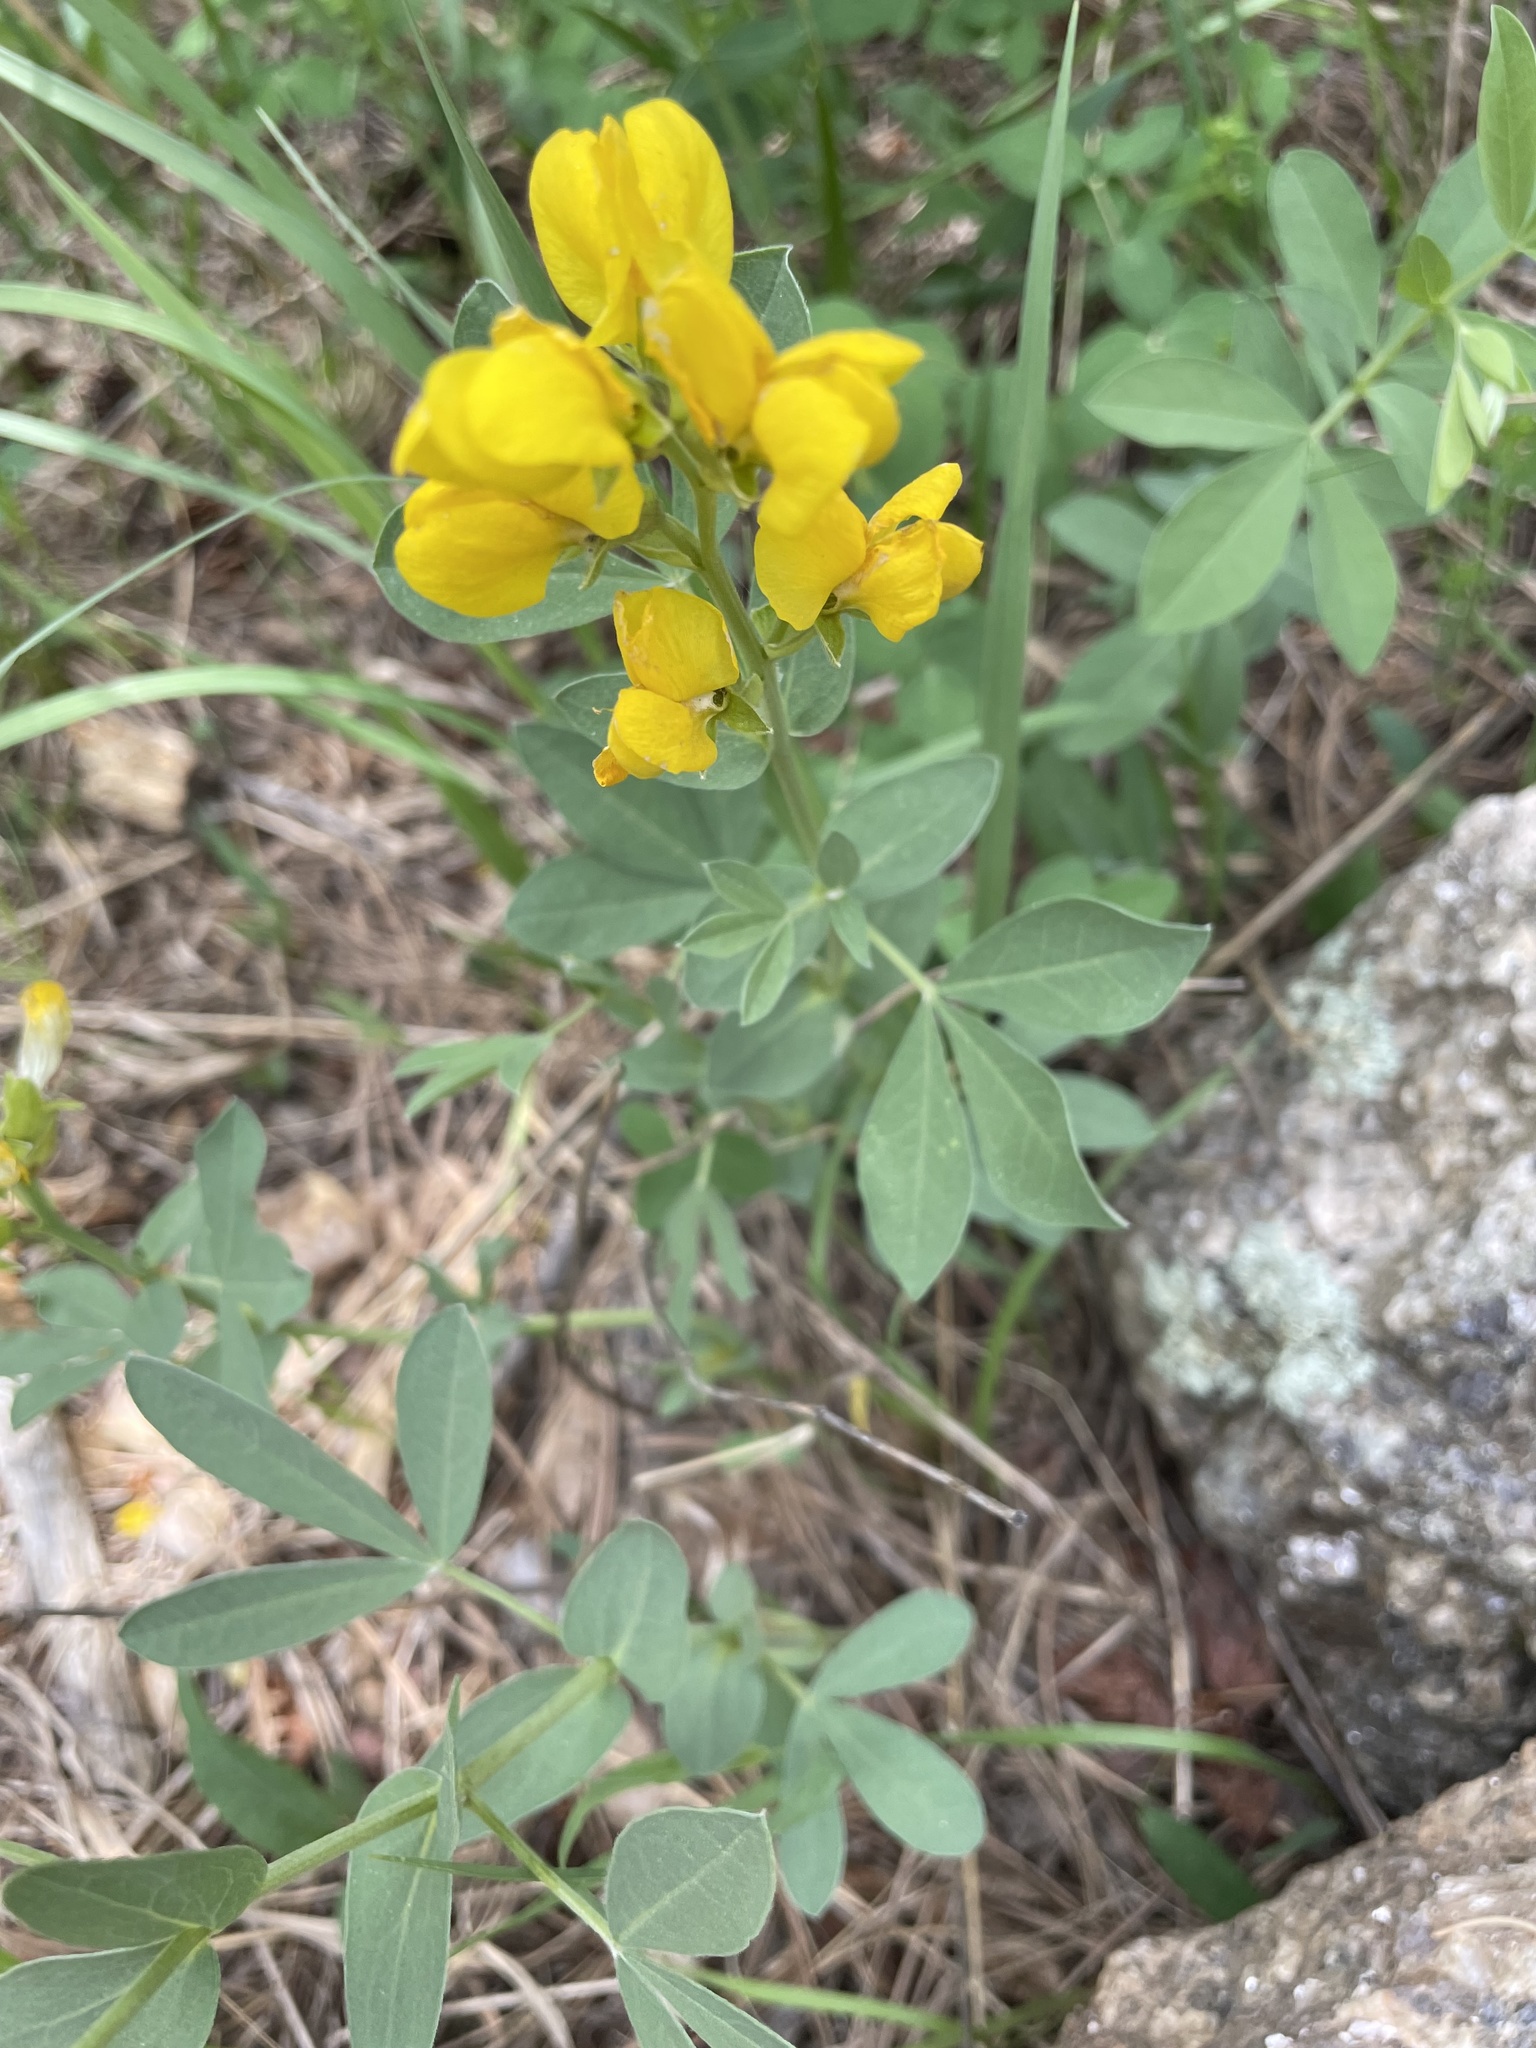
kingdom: Plantae
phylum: Tracheophyta
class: Magnoliopsida
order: Fabales
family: Fabaceae
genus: Thermopsis
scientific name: Thermopsis rhombifolia
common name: Circle-pod-pea
